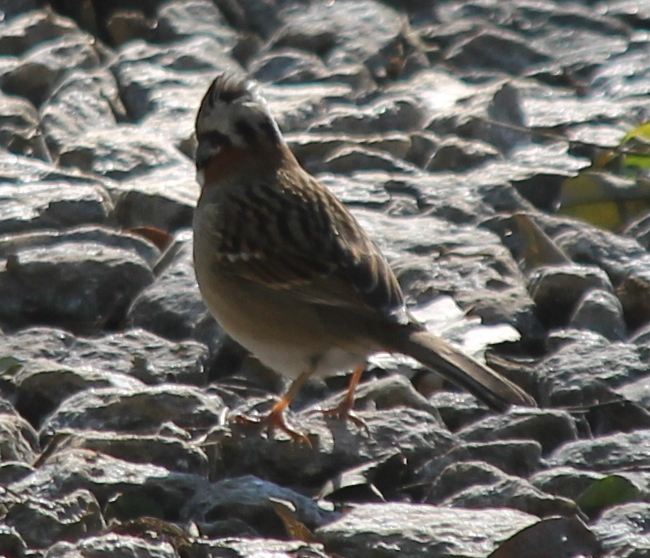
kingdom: Animalia
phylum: Chordata
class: Aves
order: Passeriformes
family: Passerellidae
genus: Zonotrichia
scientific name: Zonotrichia capensis
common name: Rufous-collared sparrow
